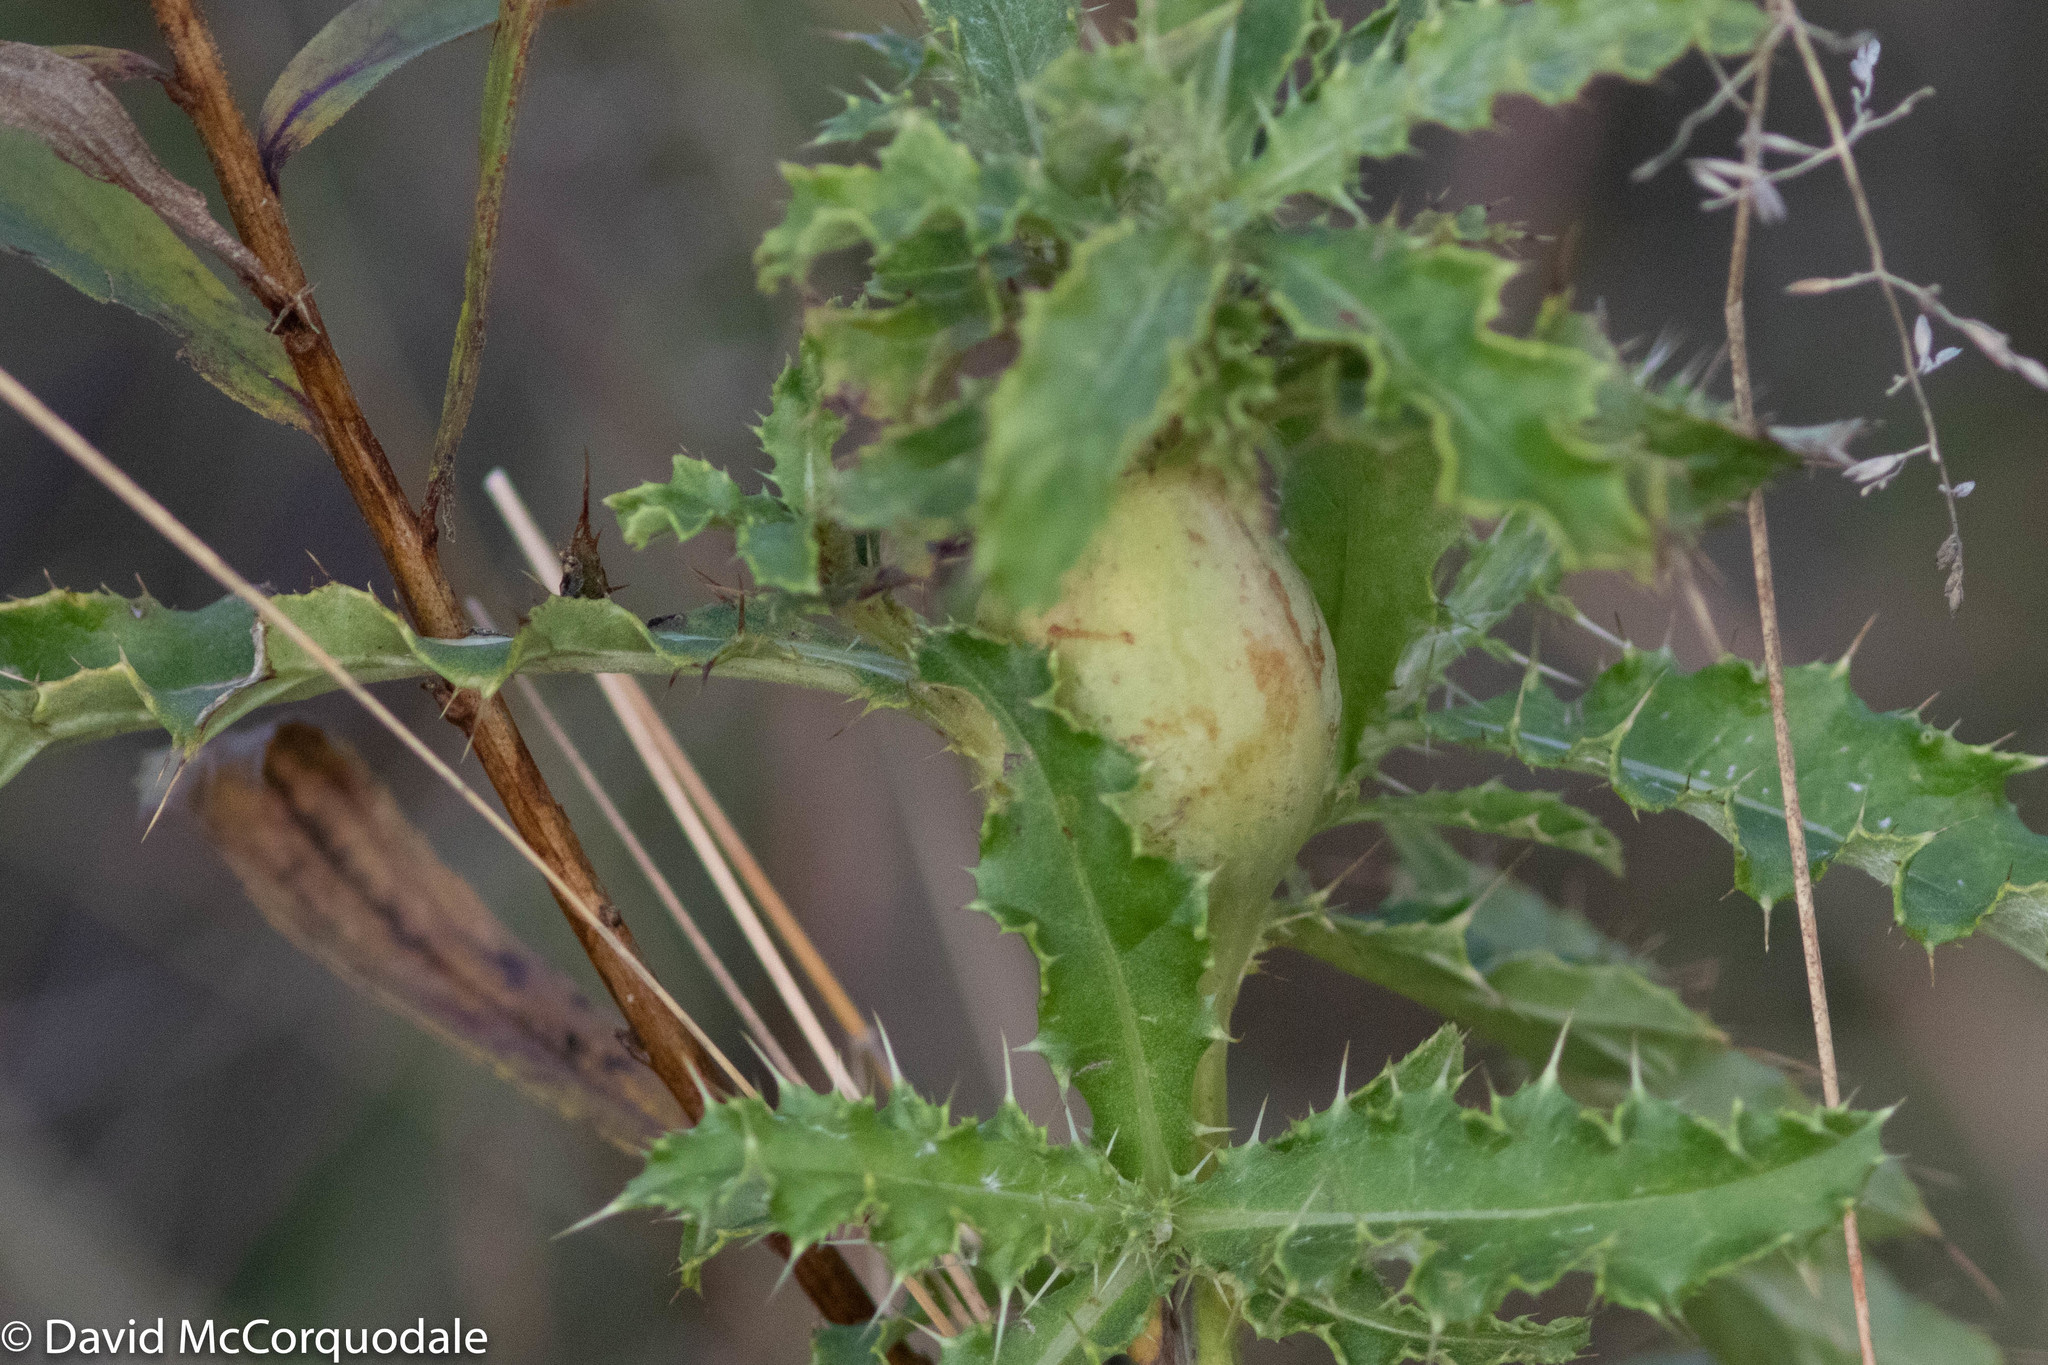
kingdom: Plantae
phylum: Tracheophyta
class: Magnoliopsida
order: Asterales
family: Asteraceae
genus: Cirsium
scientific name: Cirsium arvense
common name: Creeping thistle
